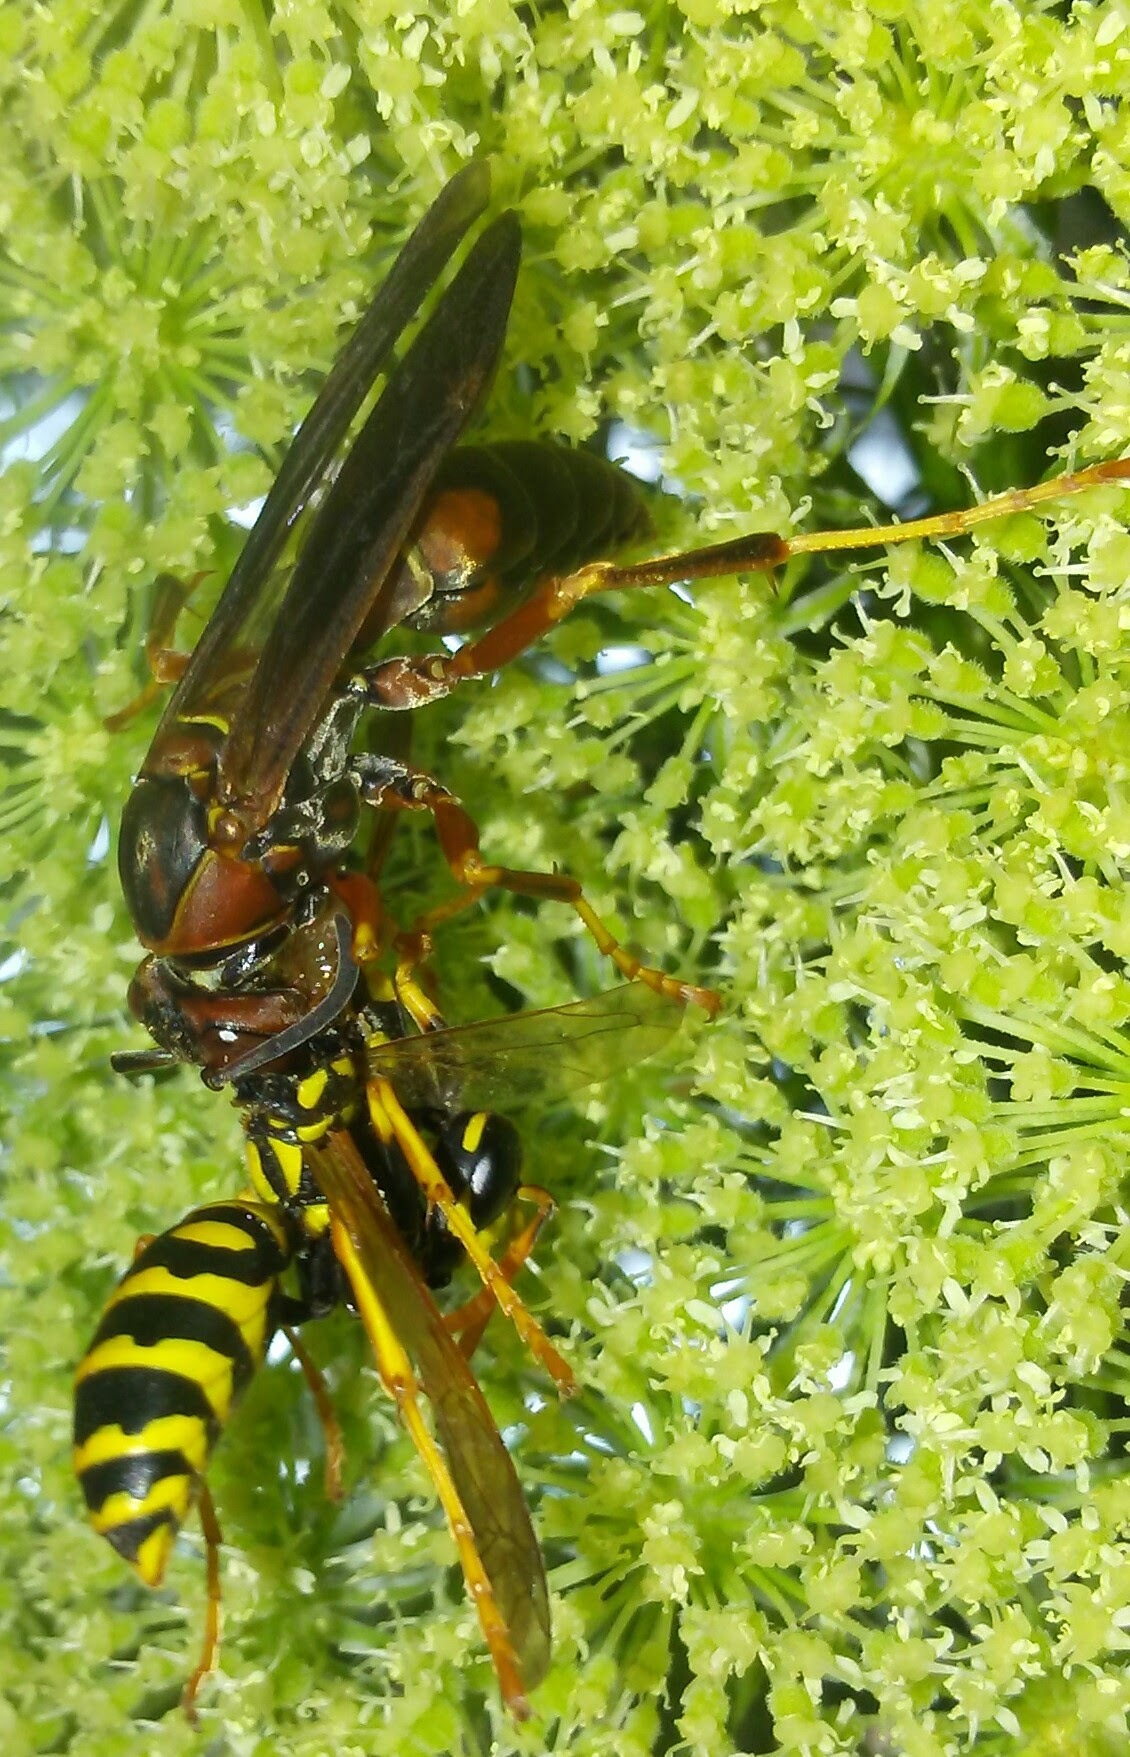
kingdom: Animalia
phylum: Arthropoda
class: Insecta
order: Hymenoptera
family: Eumenidae
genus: Polistes
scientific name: Polistes fuscatus
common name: Dark paper wasp
